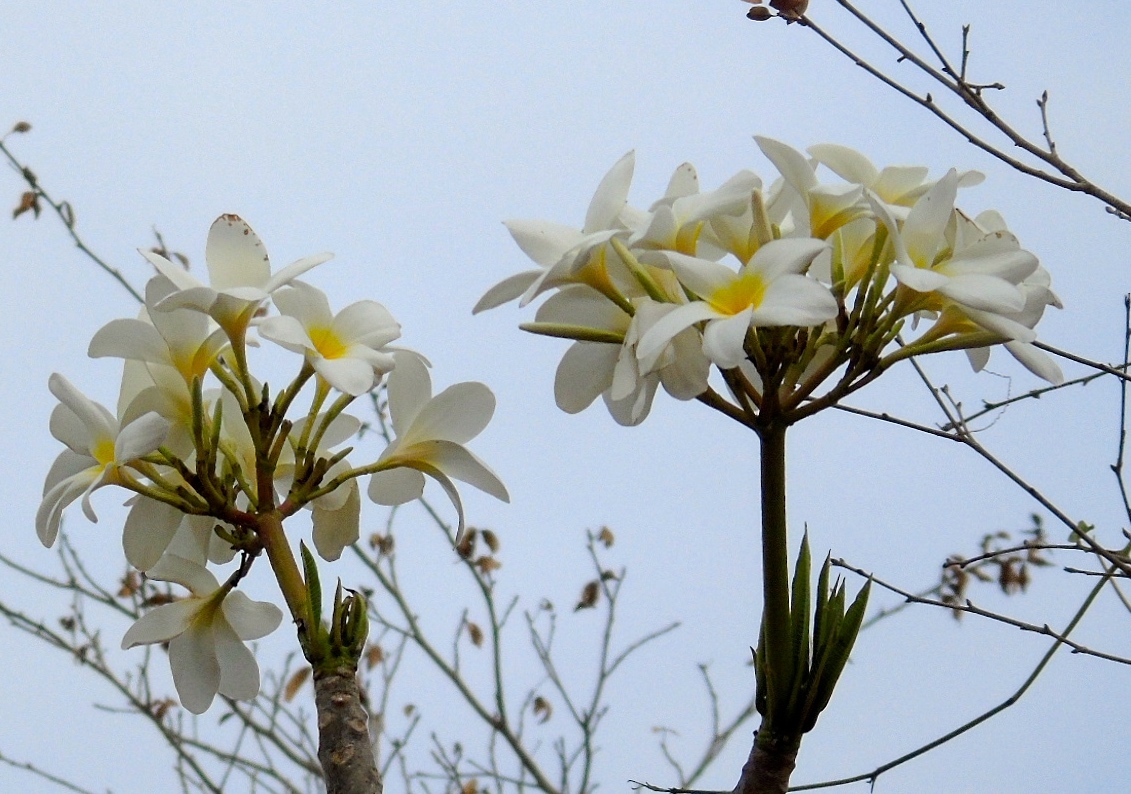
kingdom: Plantae
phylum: Tracheophyta
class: Magnoliopsida
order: Gentianales
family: Apocynaceae
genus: Plumeria
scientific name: Plumeria rubra
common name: Pagoda-tree
